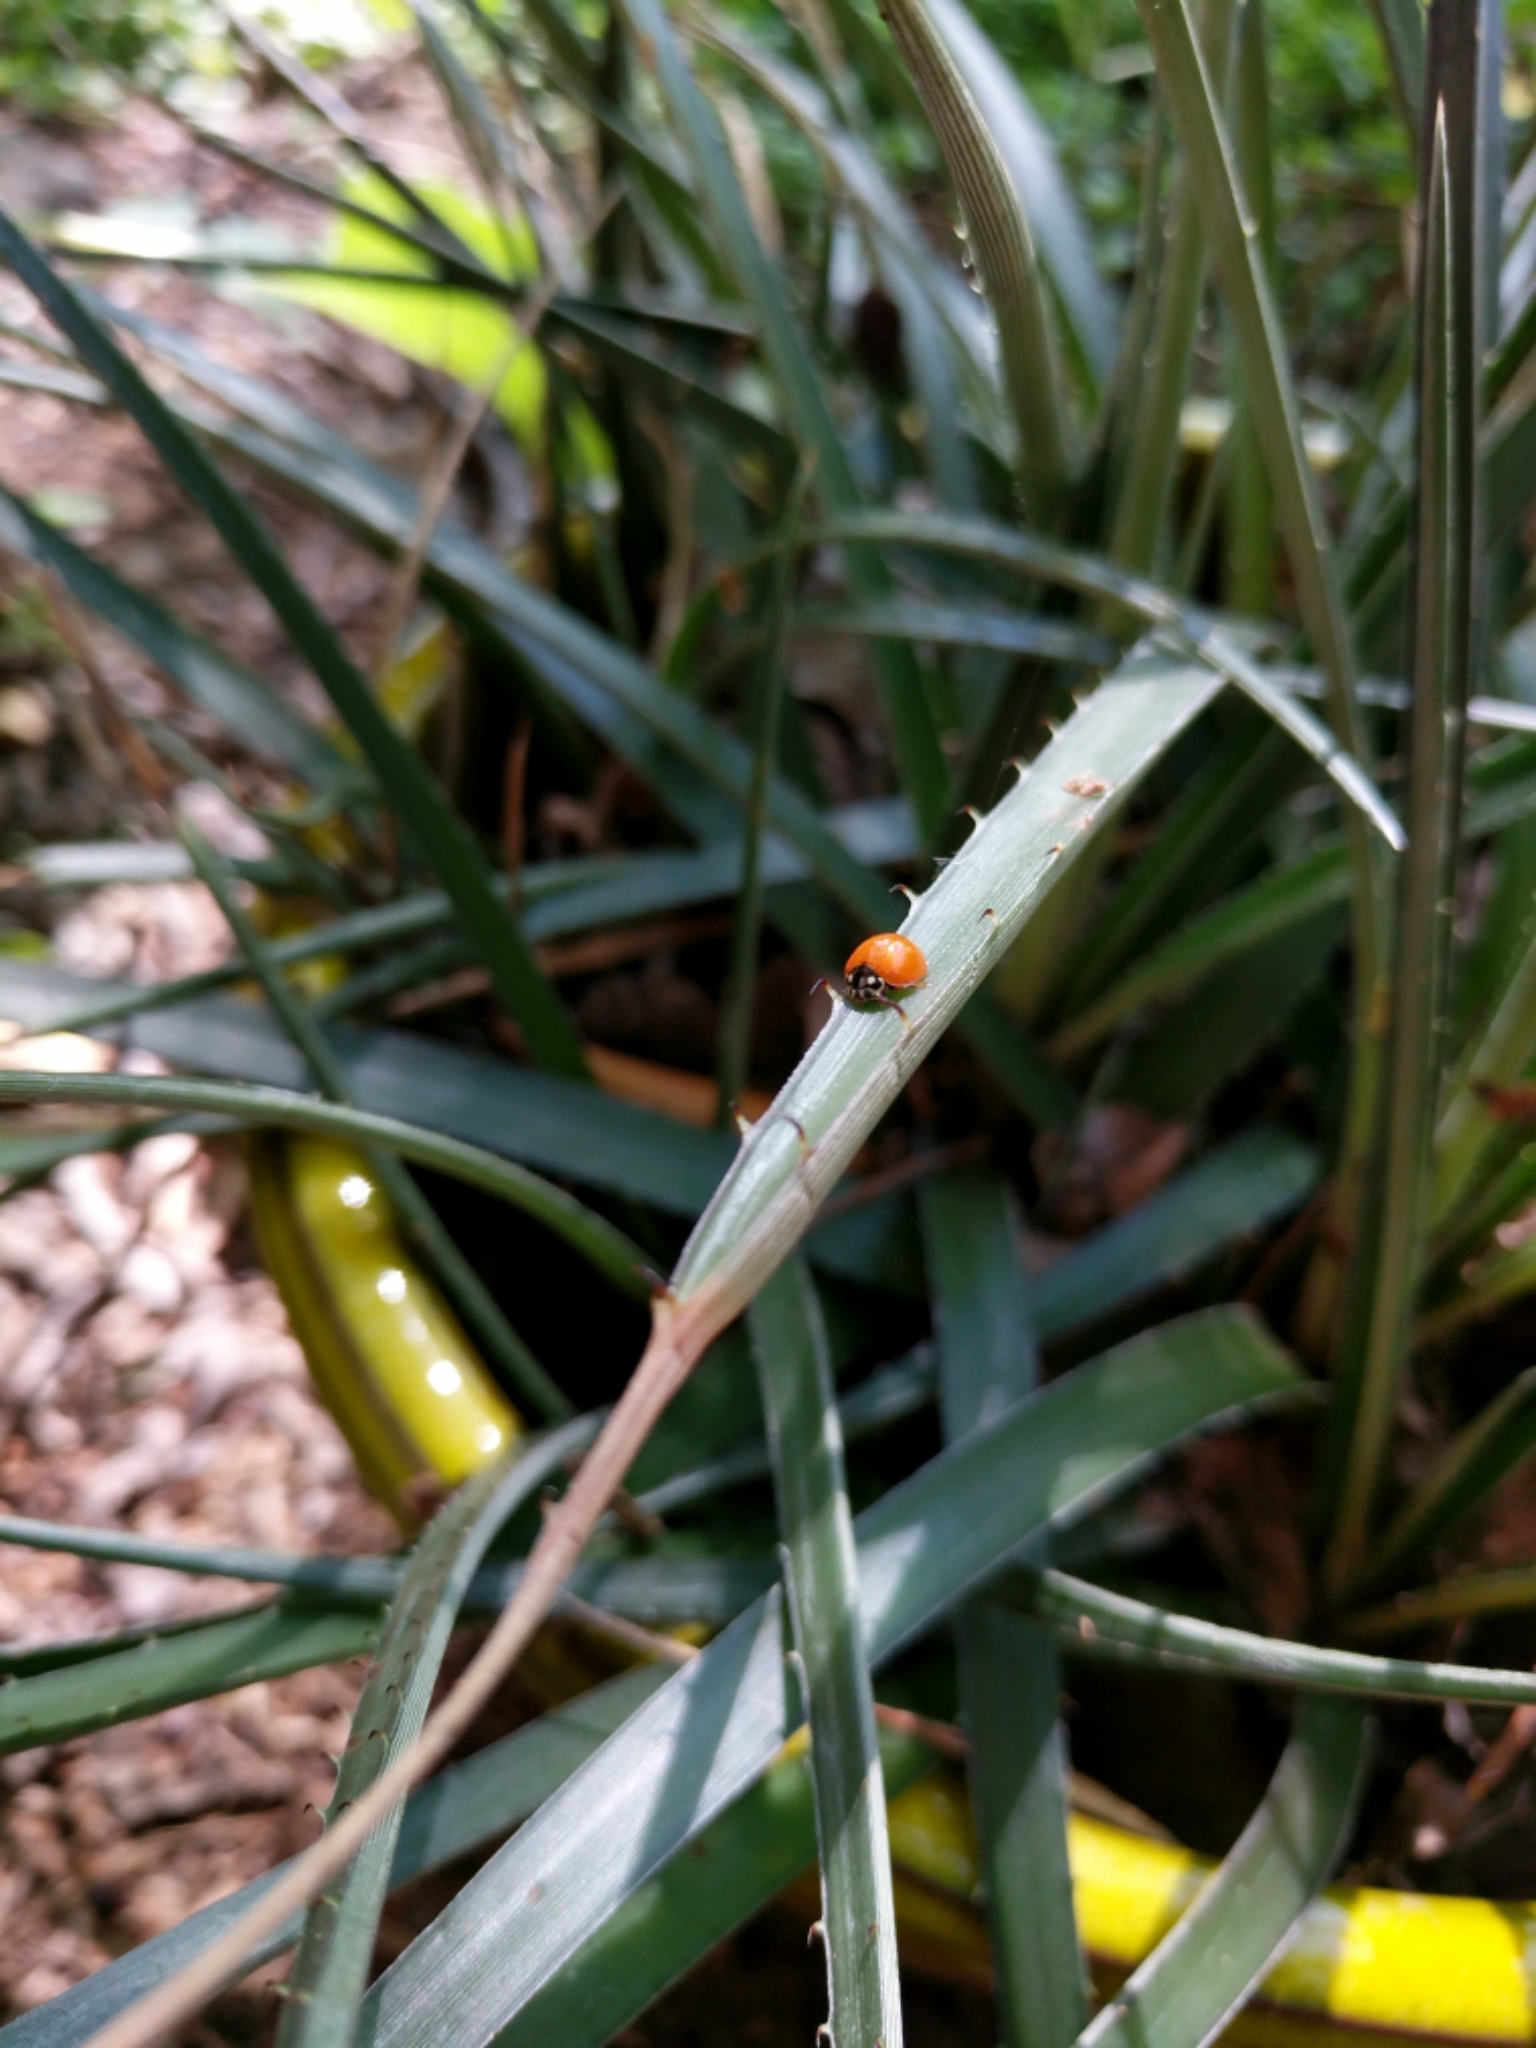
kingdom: Animalia
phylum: Arthropoda
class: Insecta
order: Coleoptera
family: Coccinellidae
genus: Cycloneda
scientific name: Cycloneda sanguinea
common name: Ladybird beetle
